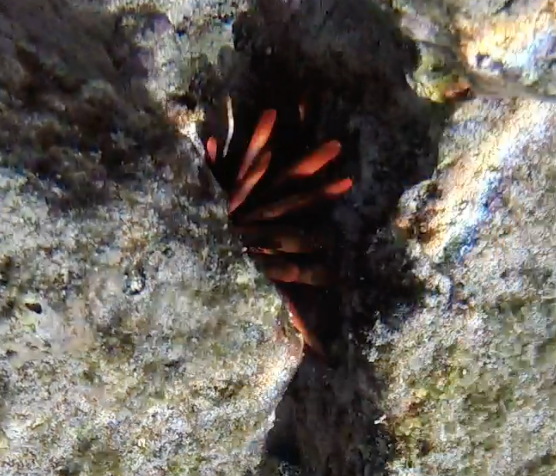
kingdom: Animalia
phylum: Echinodermata
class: Echinoidea
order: Camarodonta
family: Echinometridae
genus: Heterocentrotus
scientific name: Heterocentrotus mamillatus
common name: Slate pencil urchin
